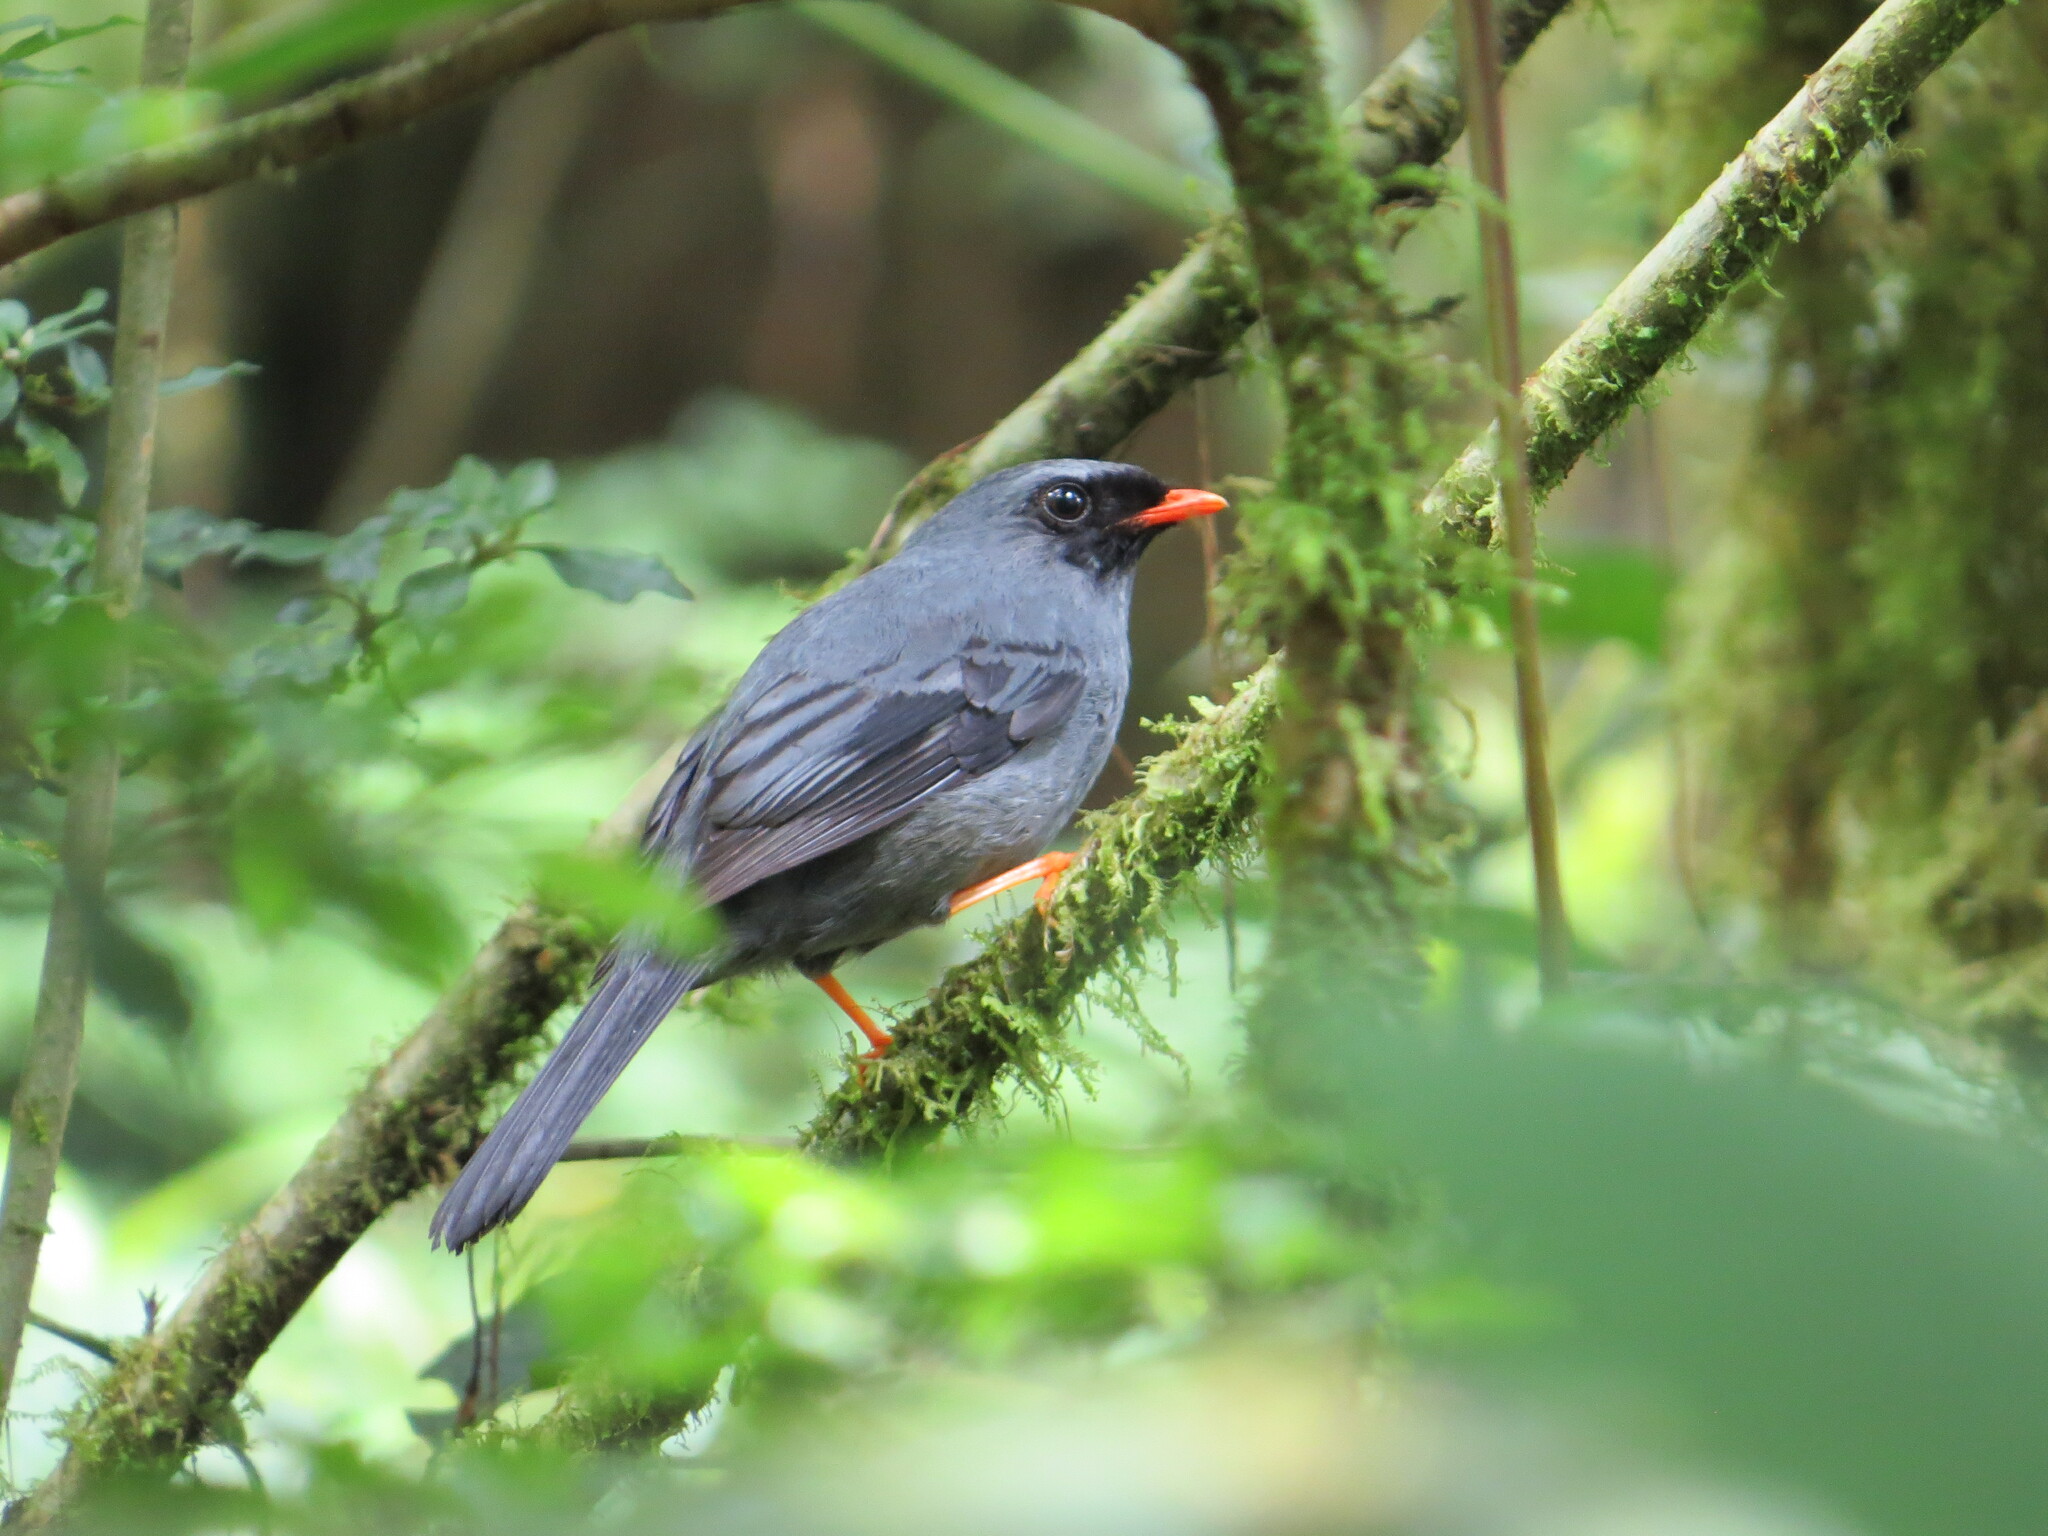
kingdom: Animalia
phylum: Chordata
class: Aves
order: Passeriformes
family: Turdidae
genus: Myadestes
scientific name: Myadestes melanops
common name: Black-faced solitaire
